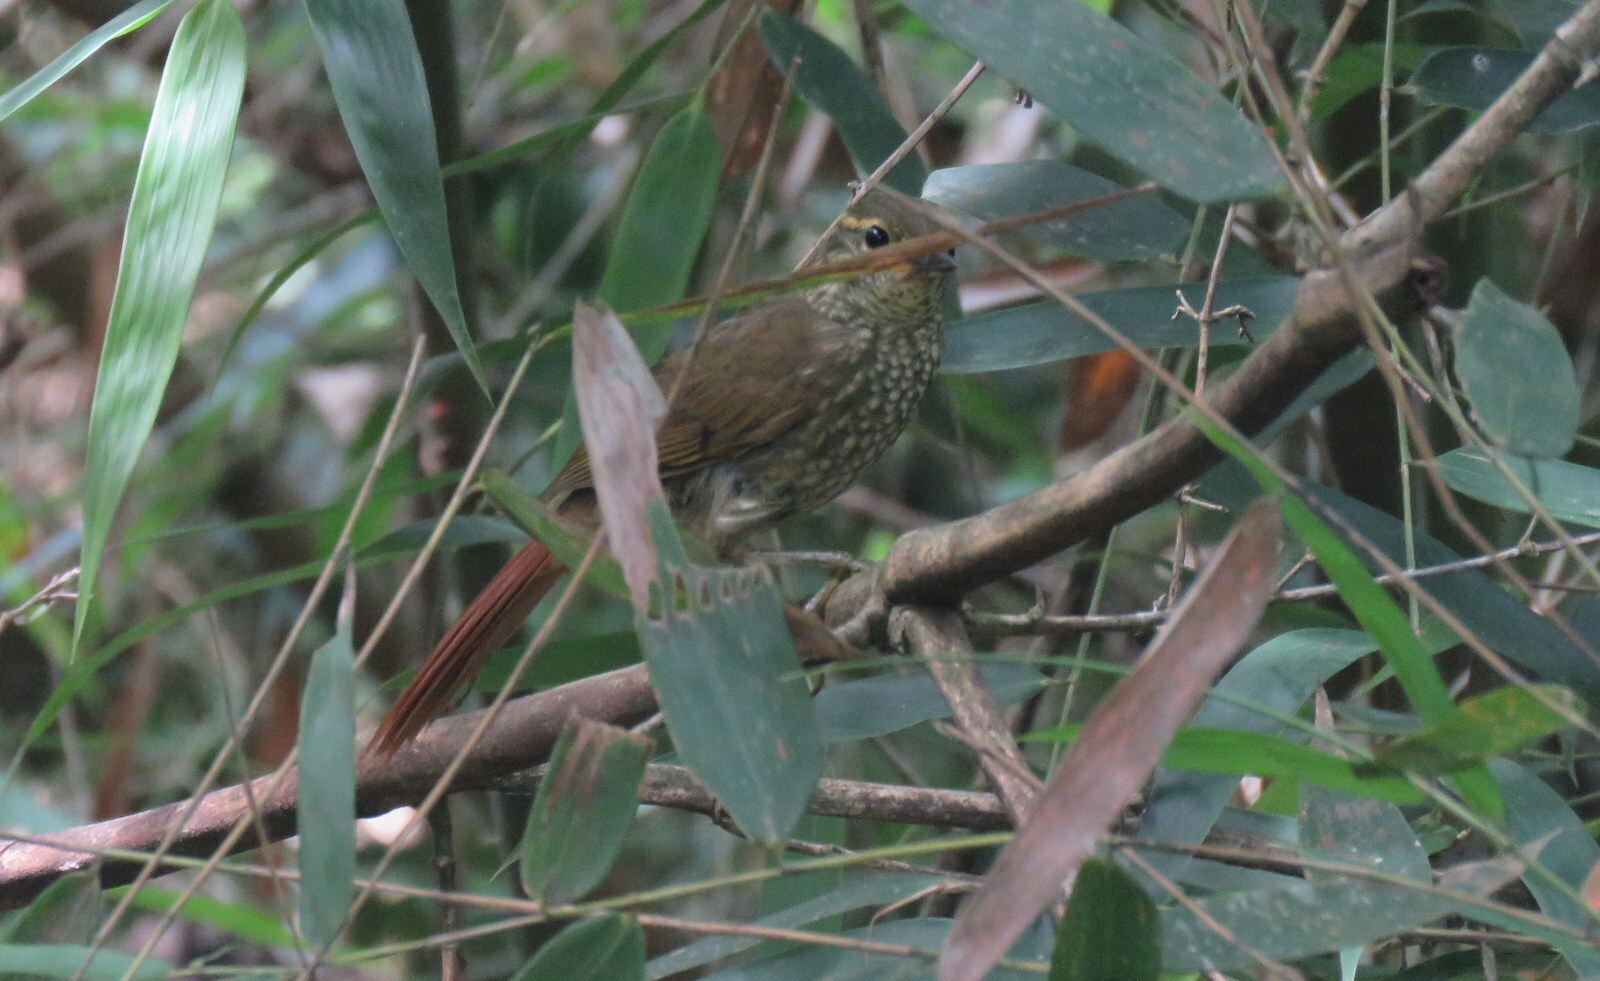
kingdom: Animalia
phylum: Chordata
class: Aves
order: Passeriformes
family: Furnariidae
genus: Syndactyla
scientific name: Syndactyla rufosuperciliata
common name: Buff-browed foliage-gleaner
